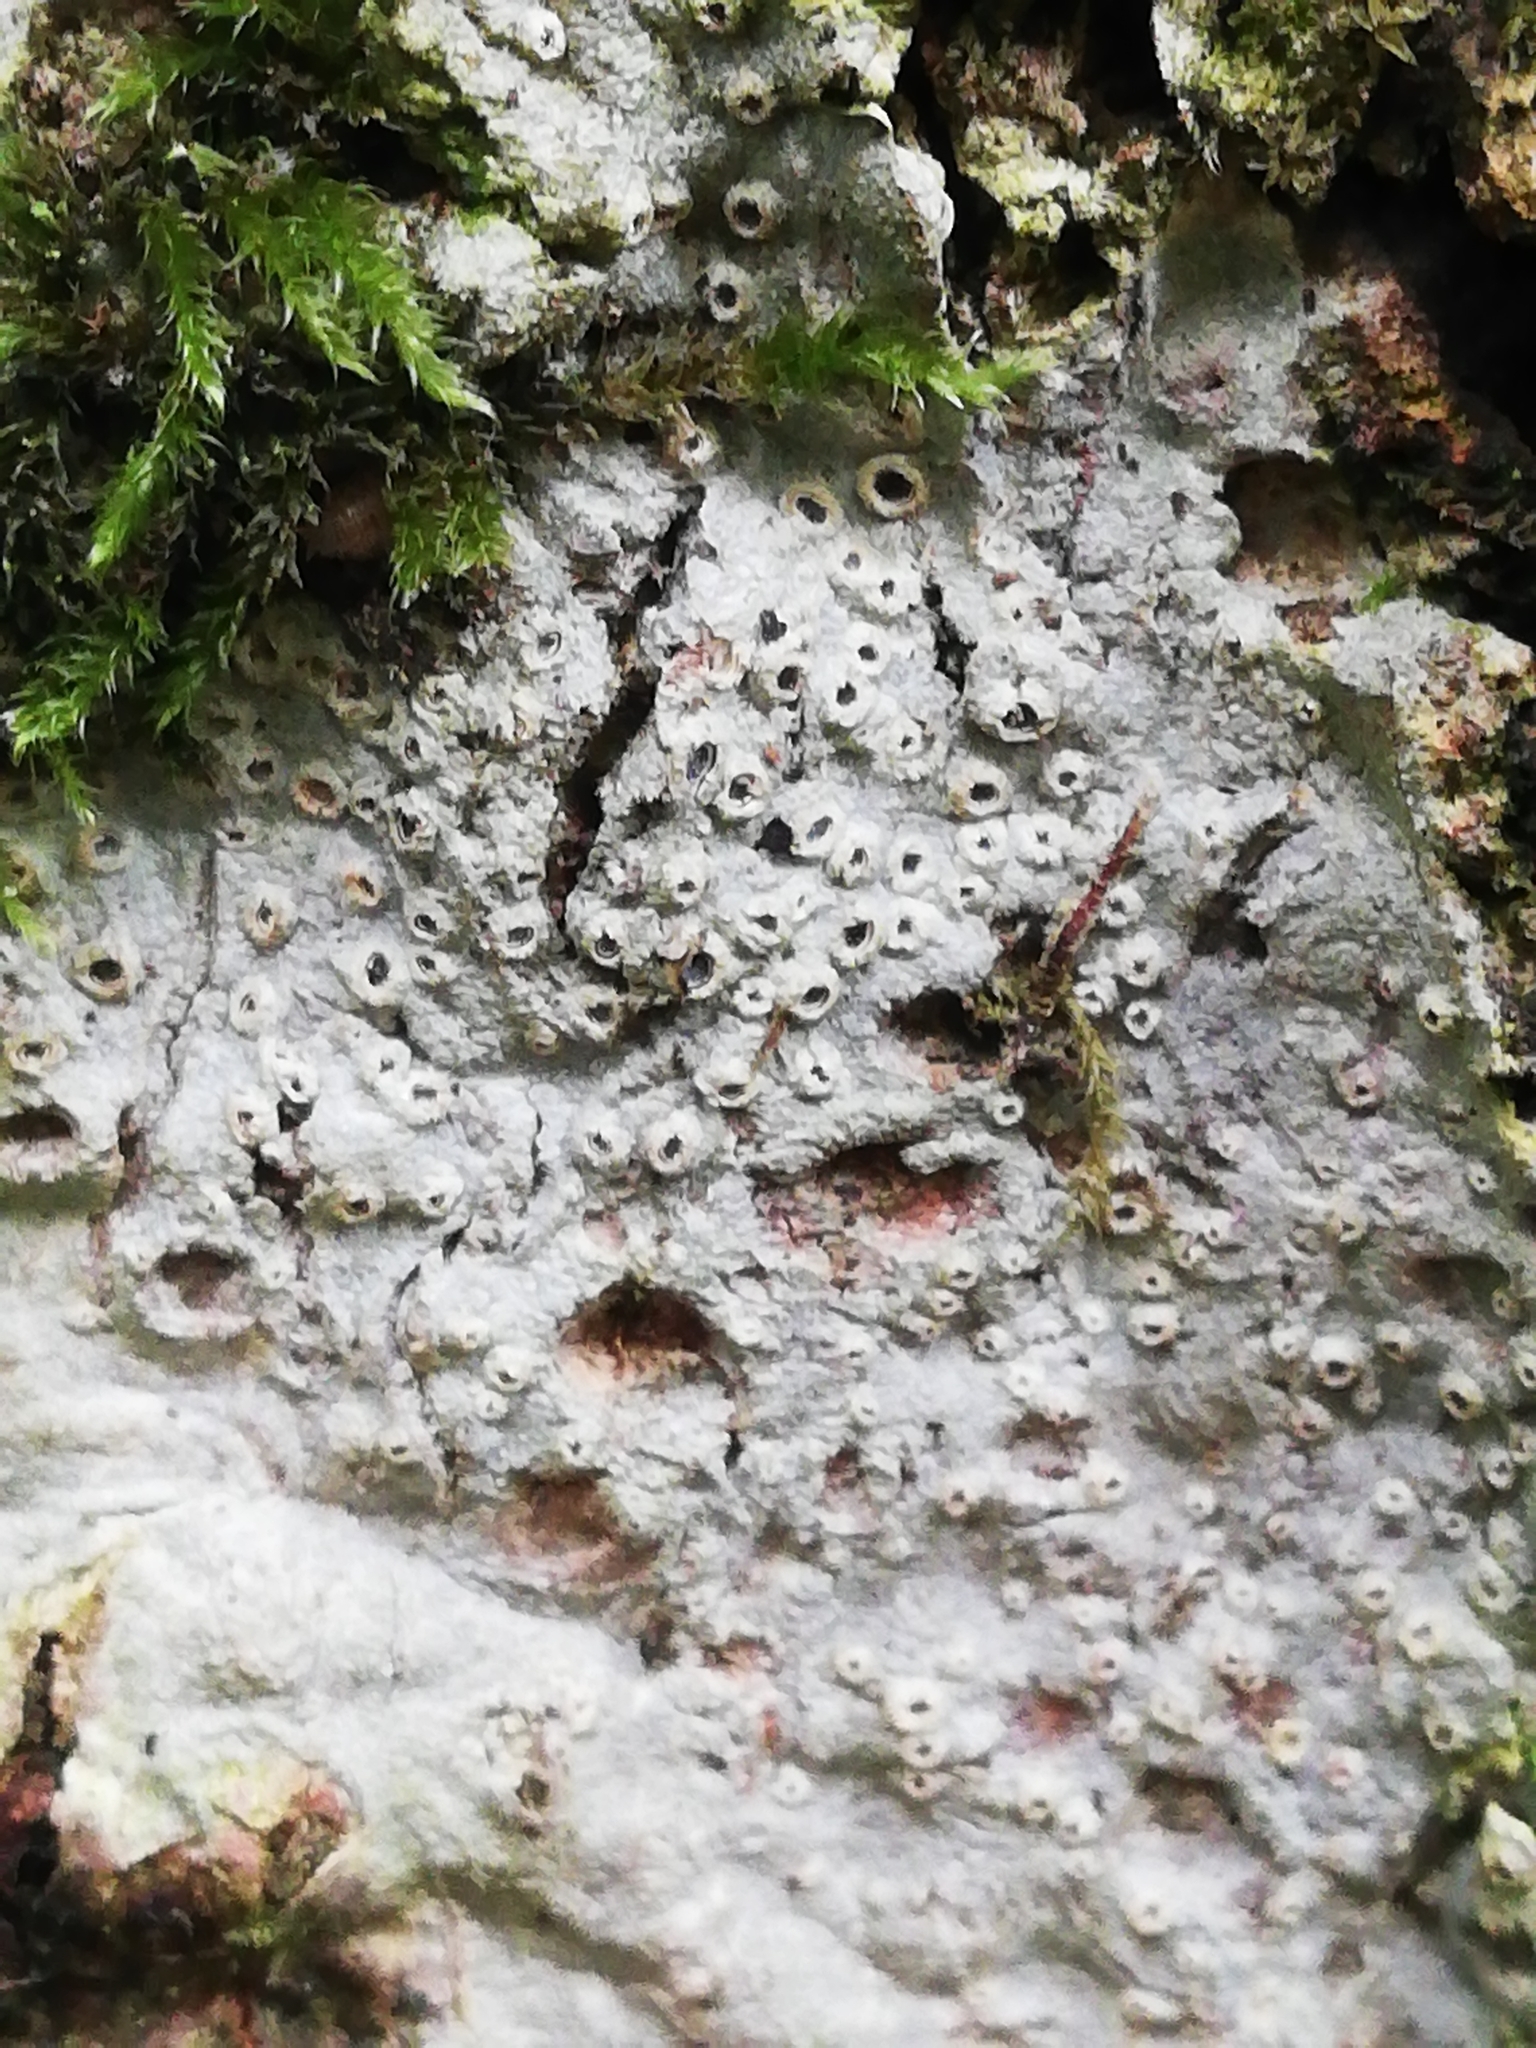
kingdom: Fungi
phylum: Ascomycota
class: Lecanoromycetes
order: Ostropales
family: Graphidaceae
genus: Thelotrema
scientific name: Thelotrema lepadinum
